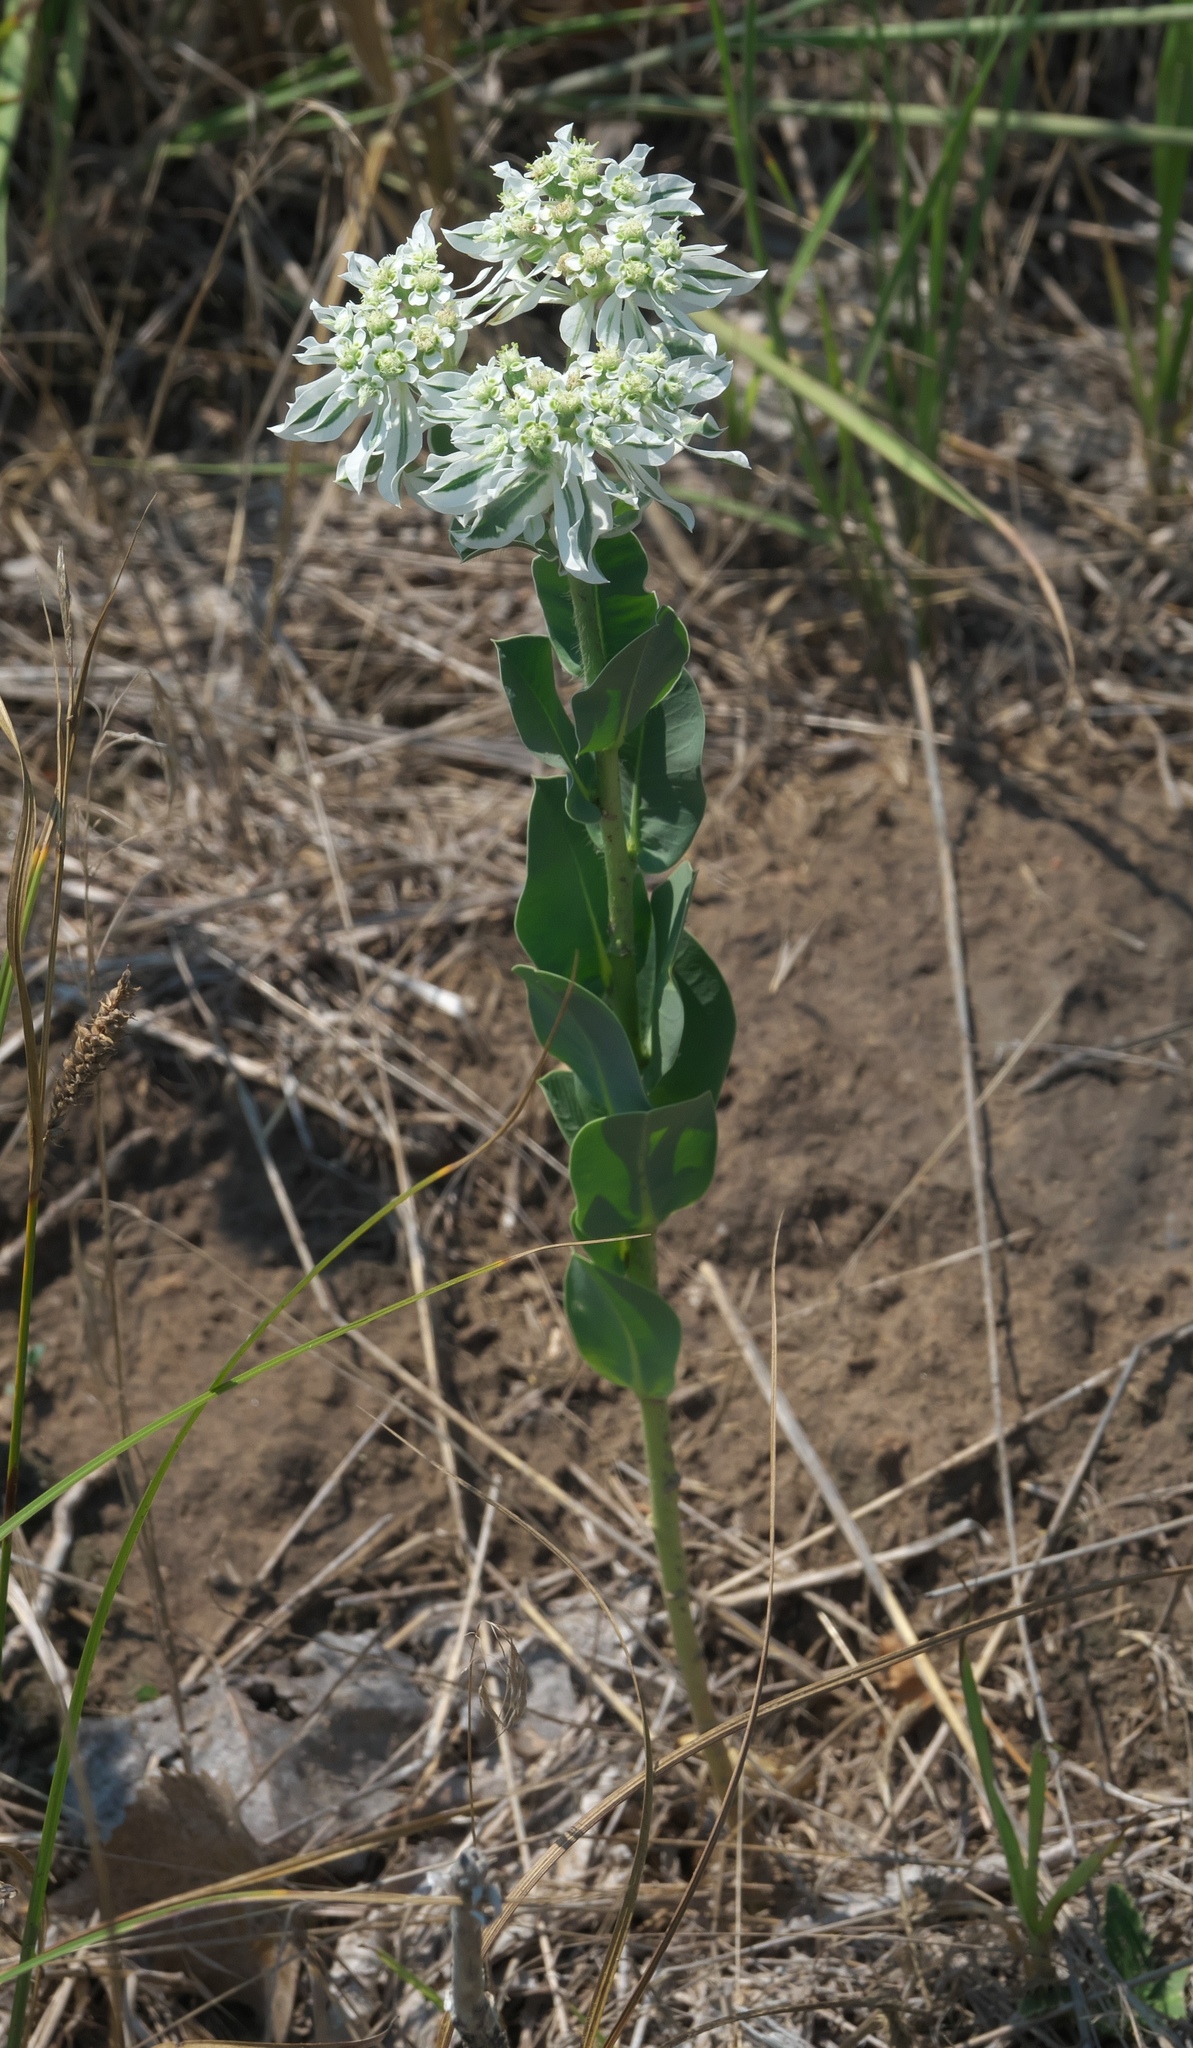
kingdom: Plantae
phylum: Tracheophyta
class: Magnoliopsida
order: Malpighiales
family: Euphorbiaceae
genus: Euphorbia
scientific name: Euphorbia marginata
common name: Ghostweed
